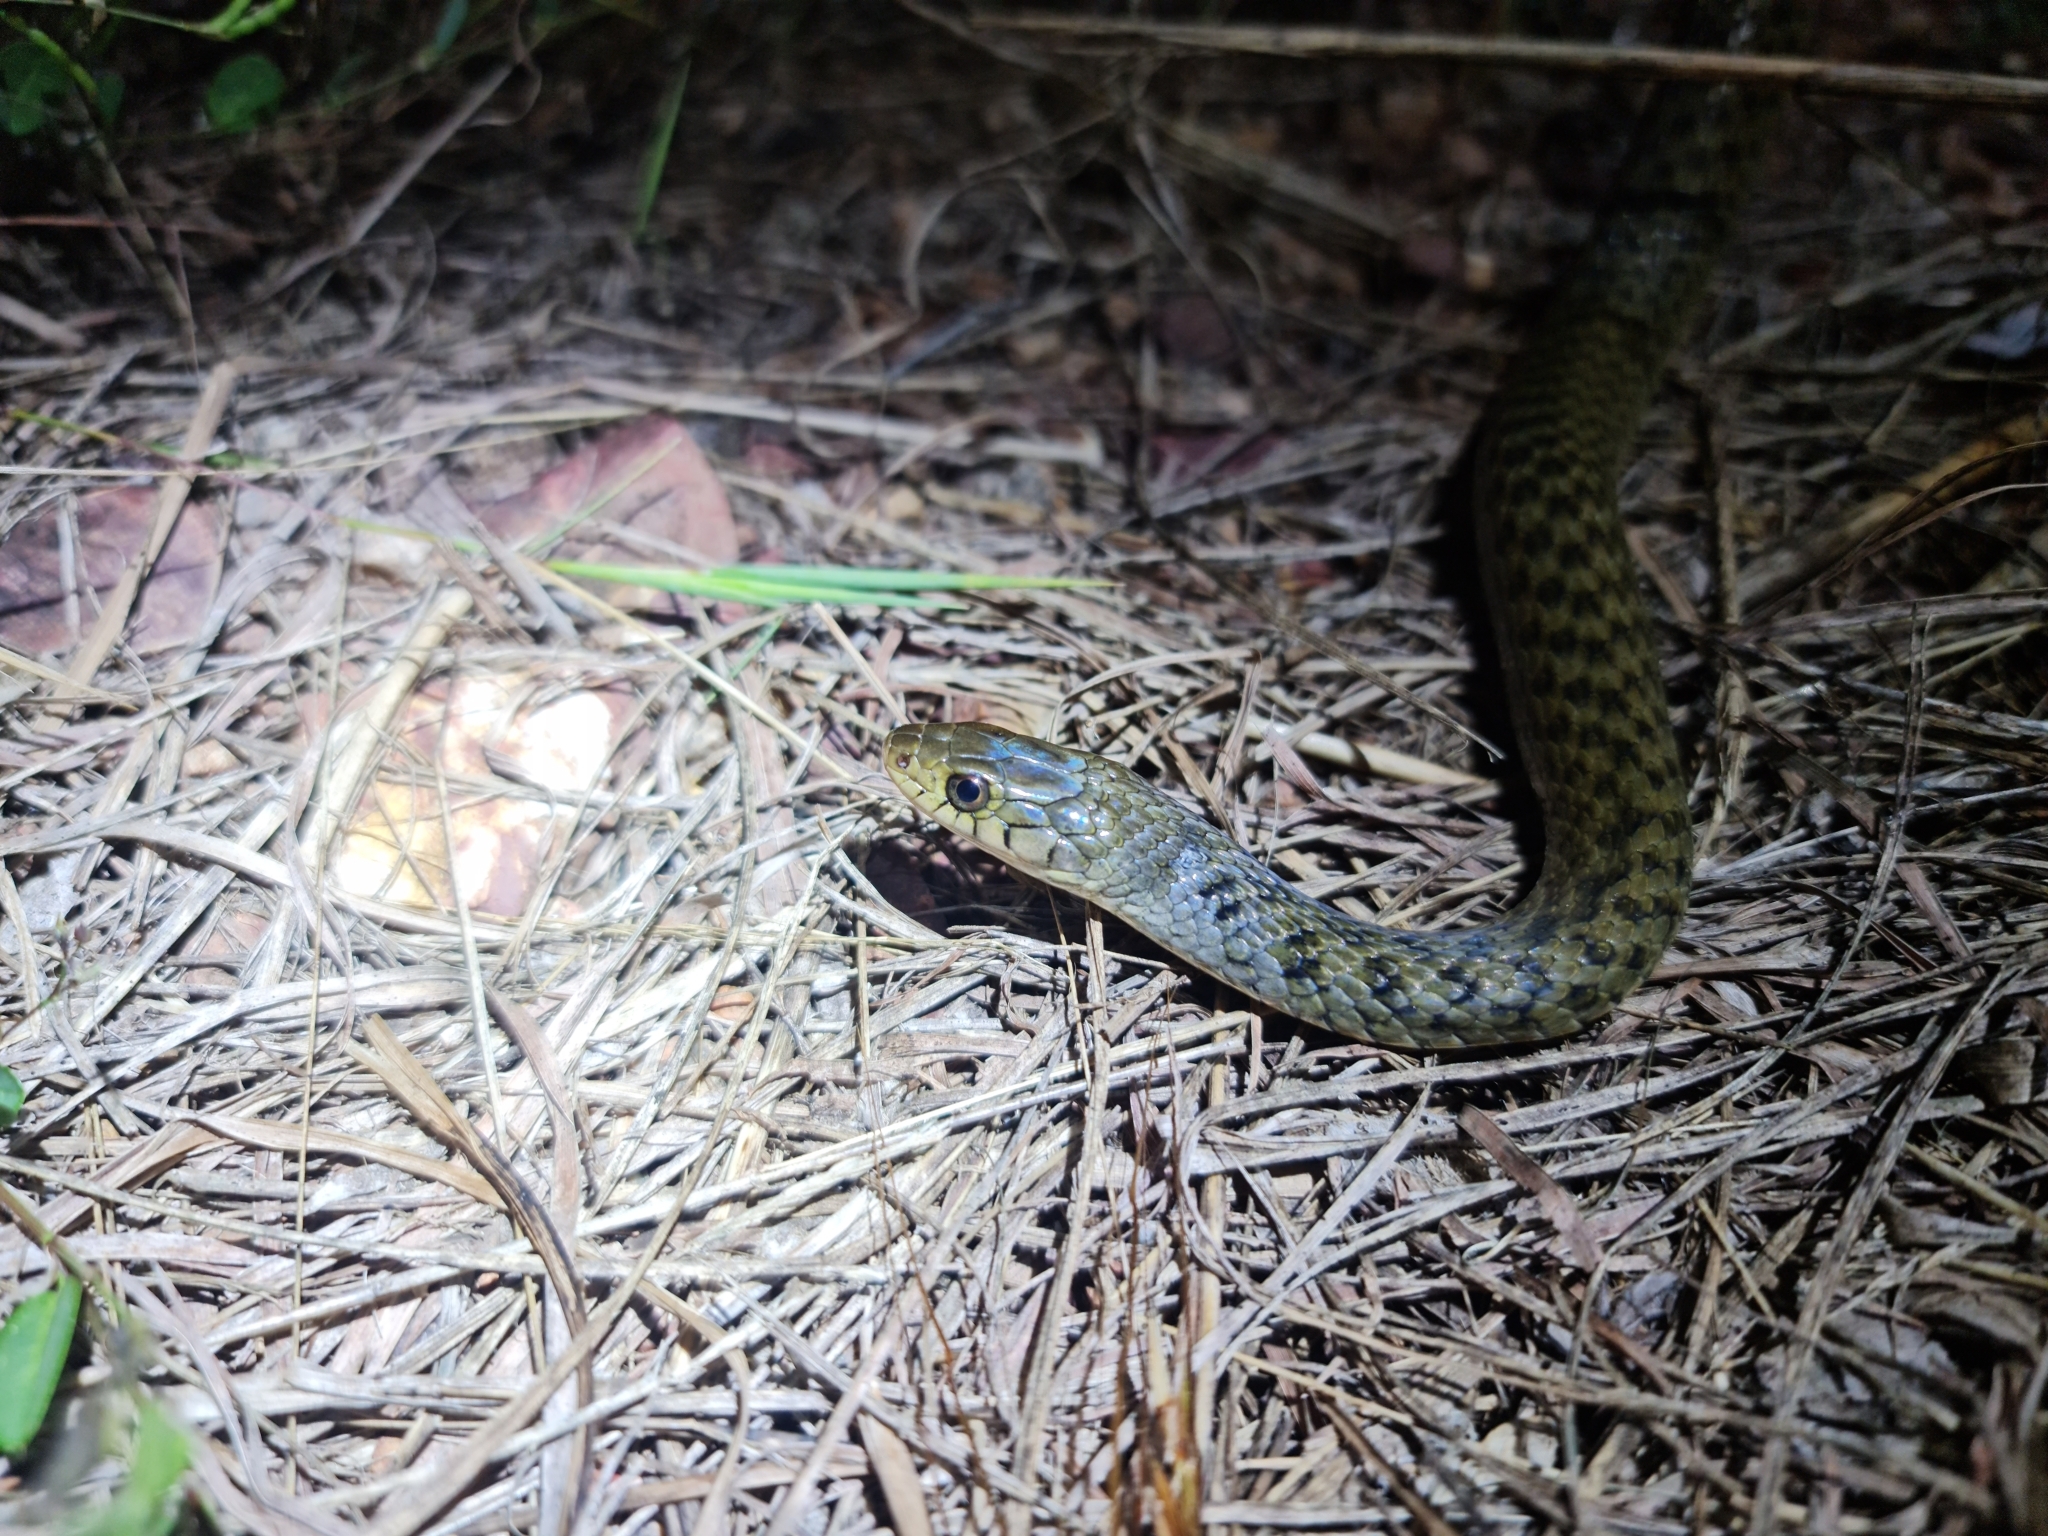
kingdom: Animalia
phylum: Chordata
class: Squamata
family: Colubridae
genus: Tropidonophis
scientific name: Tropidonophis mairii
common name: Common keelback
